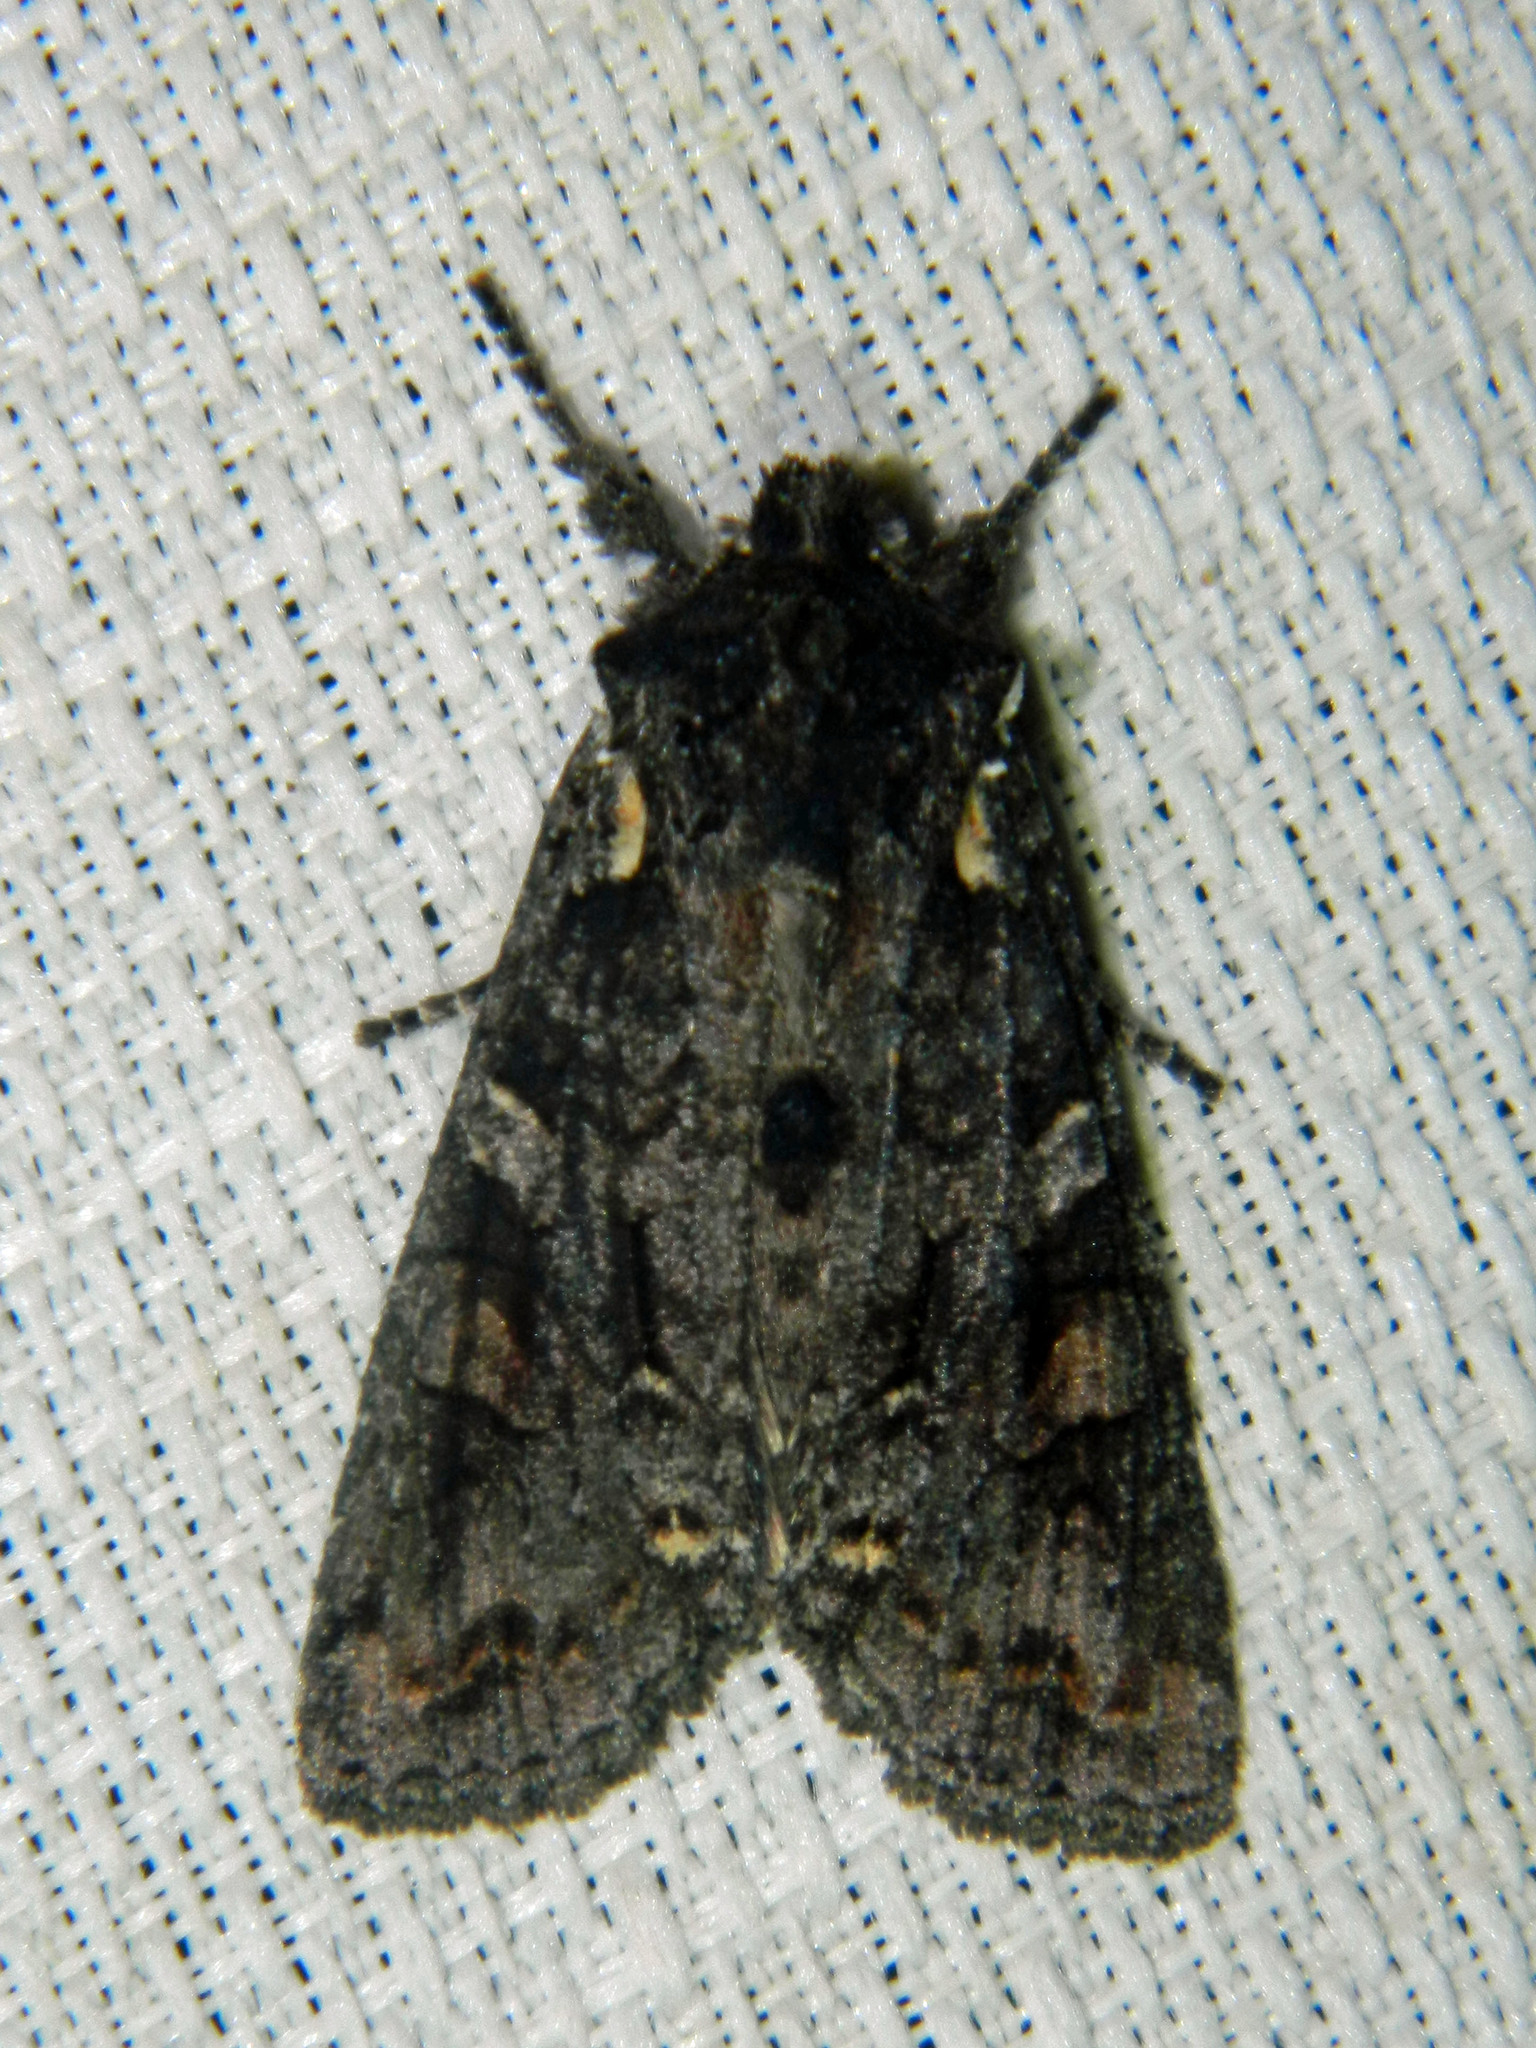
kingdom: Animalia
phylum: Arthropoda
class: Insecta
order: Lepidoptera
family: Noctuidae
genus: Lithophane
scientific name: Lithophane pexata
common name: Plush-naped pinion moth
